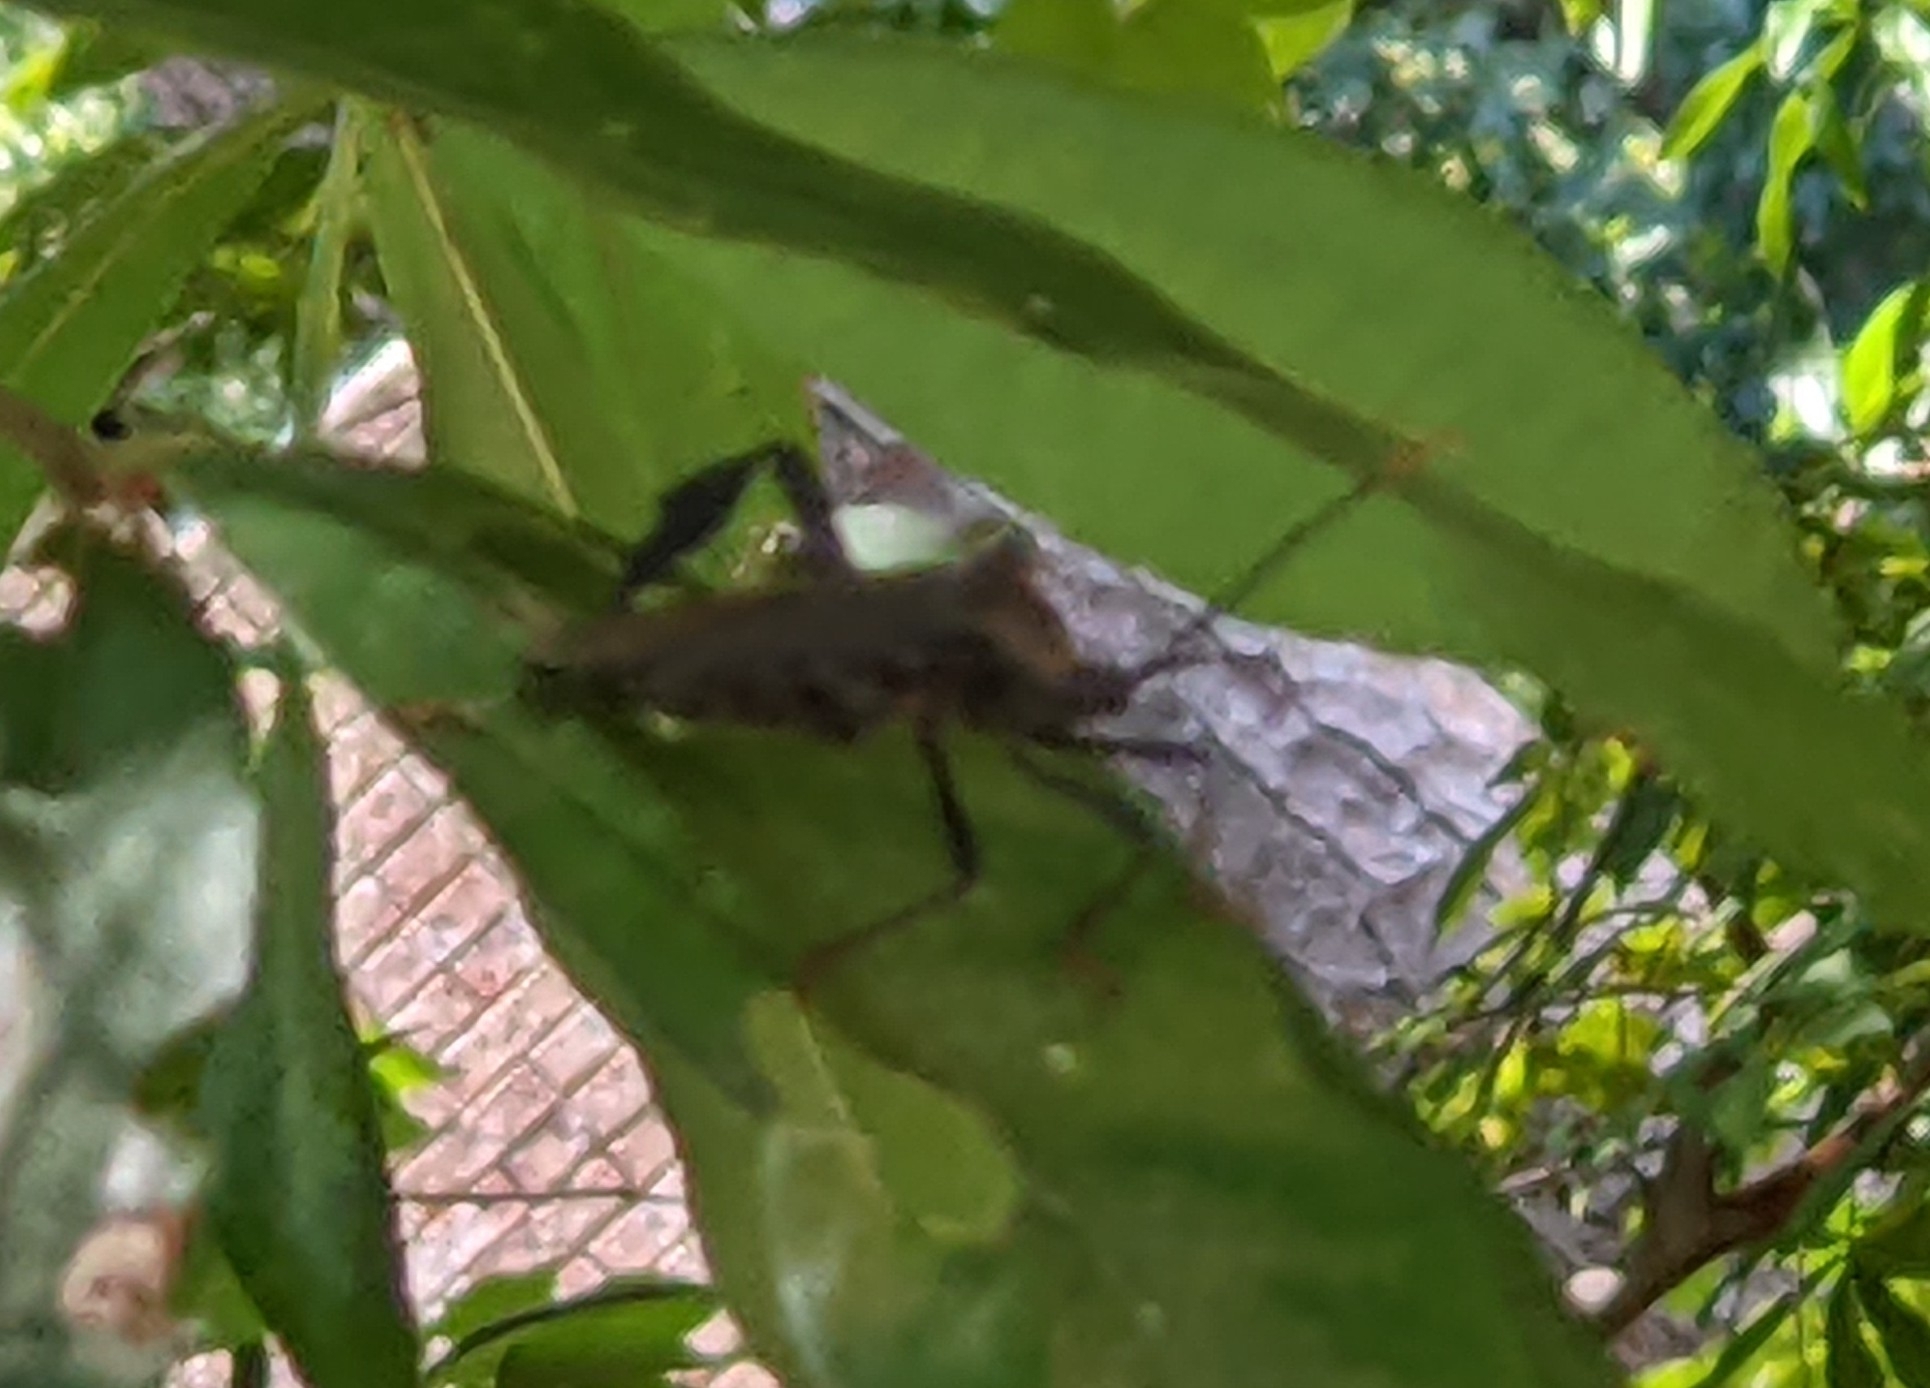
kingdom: Animalia
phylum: Arthropoda
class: Insecta
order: Hemiptera
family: Coreidae
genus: Acanthocephala
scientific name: Acanthocephala terminalis
